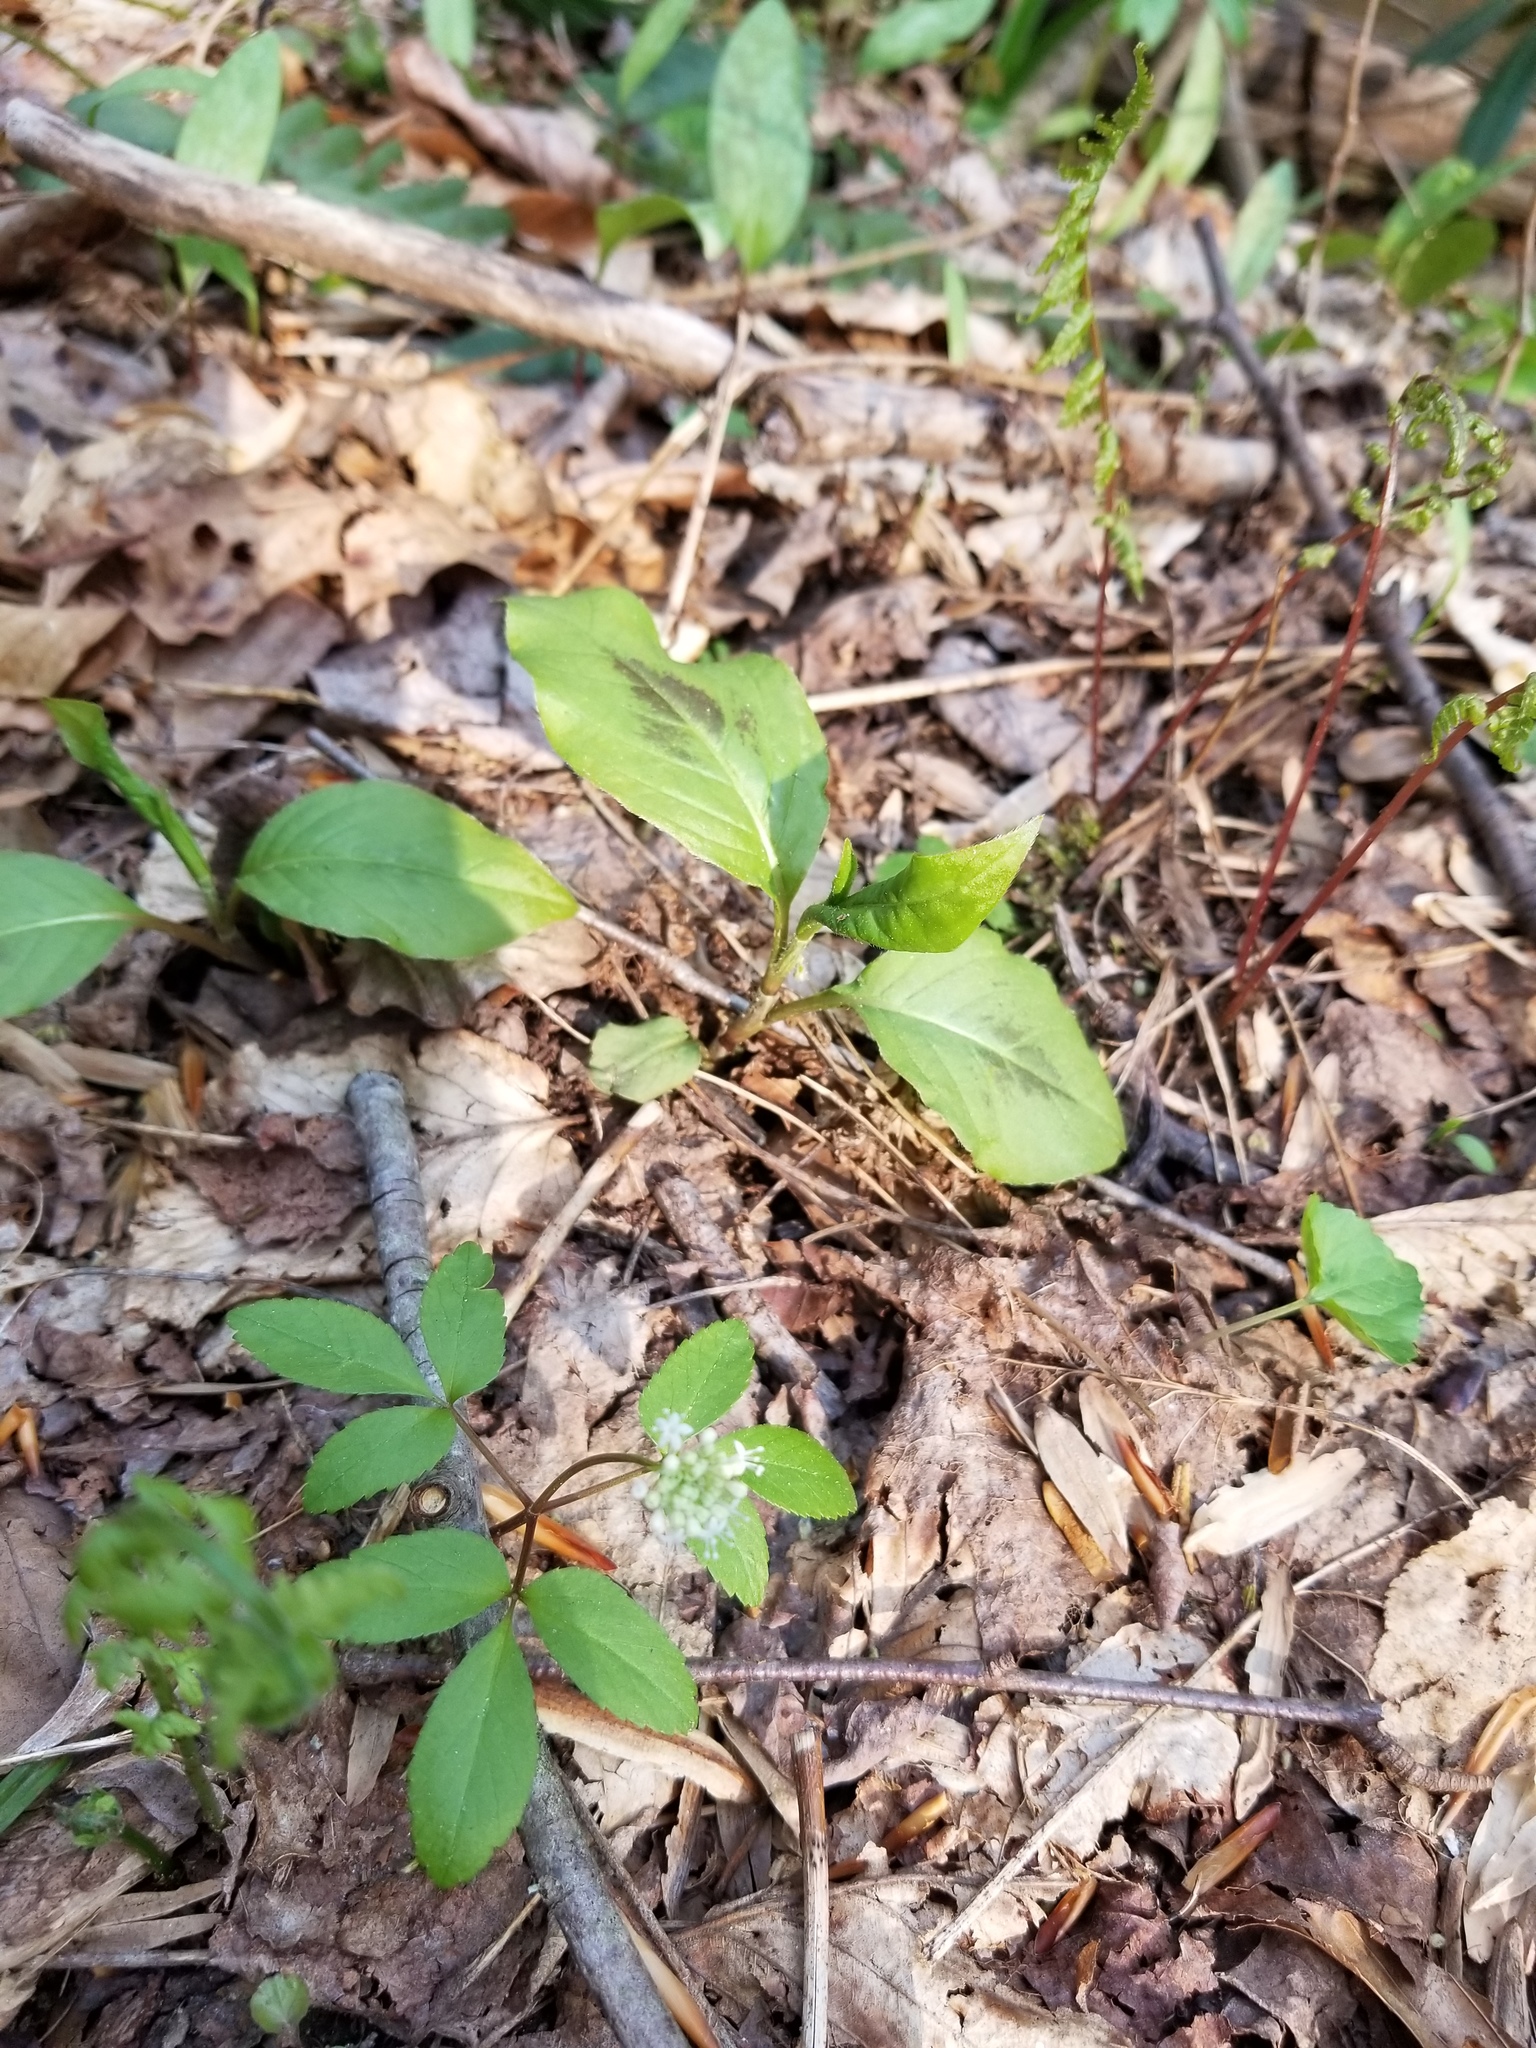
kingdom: Plantae
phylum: Tracheophyta
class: Magnoliopsida
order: Apiales
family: Araliaceae
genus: Panax
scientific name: Panax trifolius
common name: Dwarf ginseng
